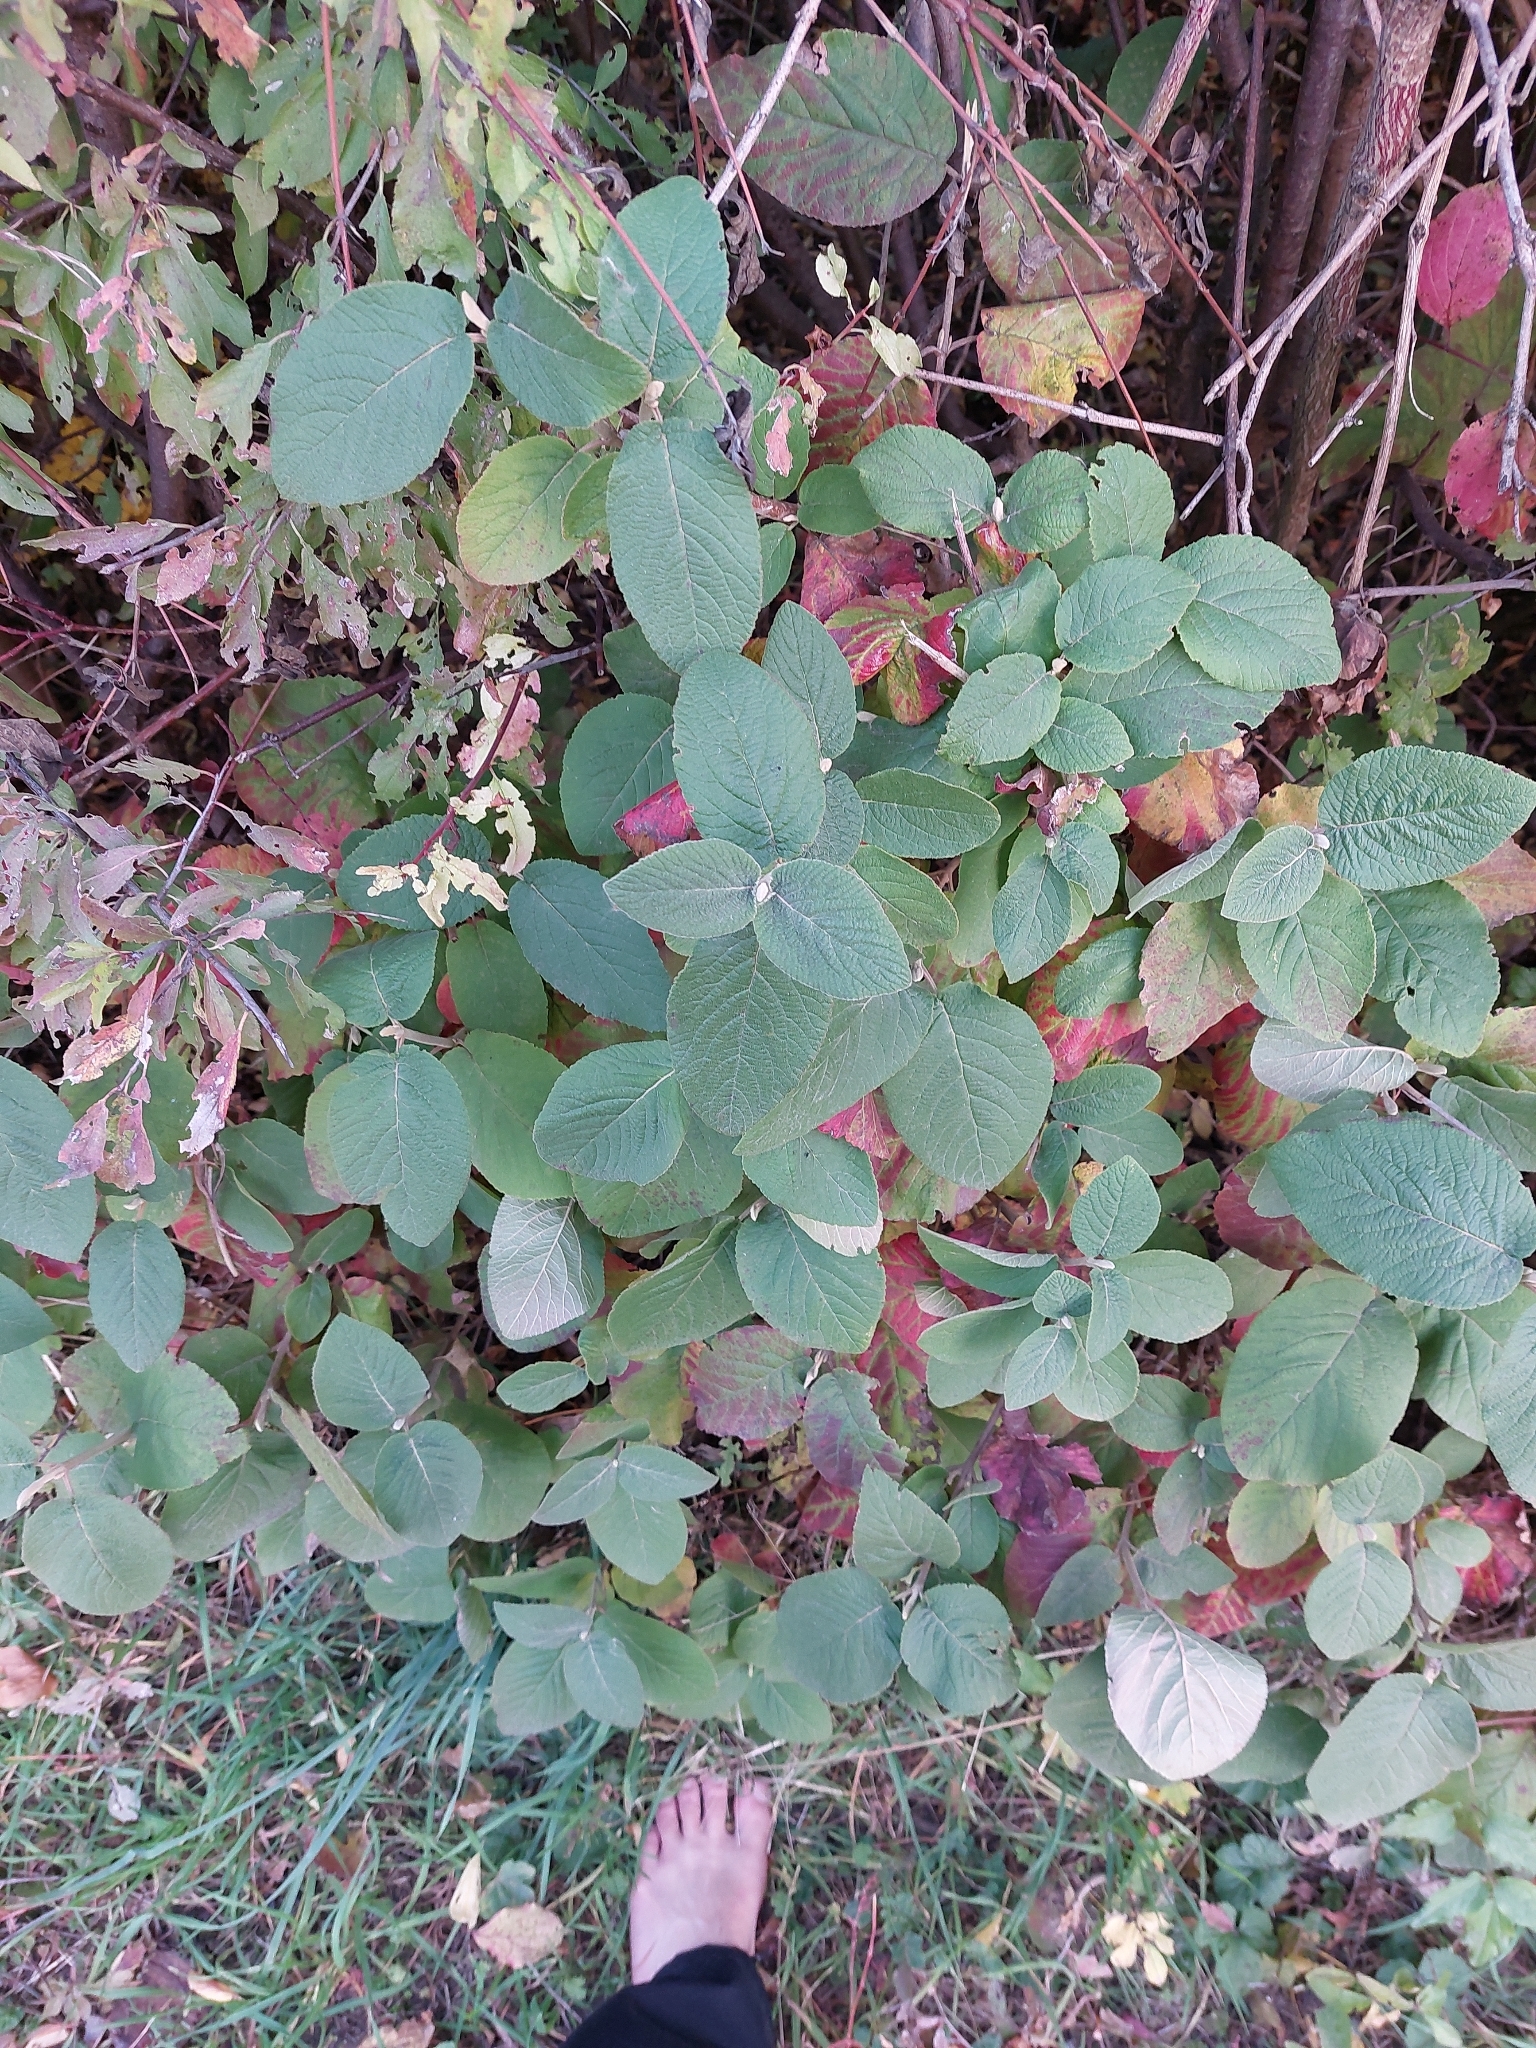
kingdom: Plantae
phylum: Tracheophyta
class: Magnoliopsida
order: Dipsacales
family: Viburnaceae
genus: Viburnum
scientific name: Viburnum lantana
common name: Wayfaring tree
